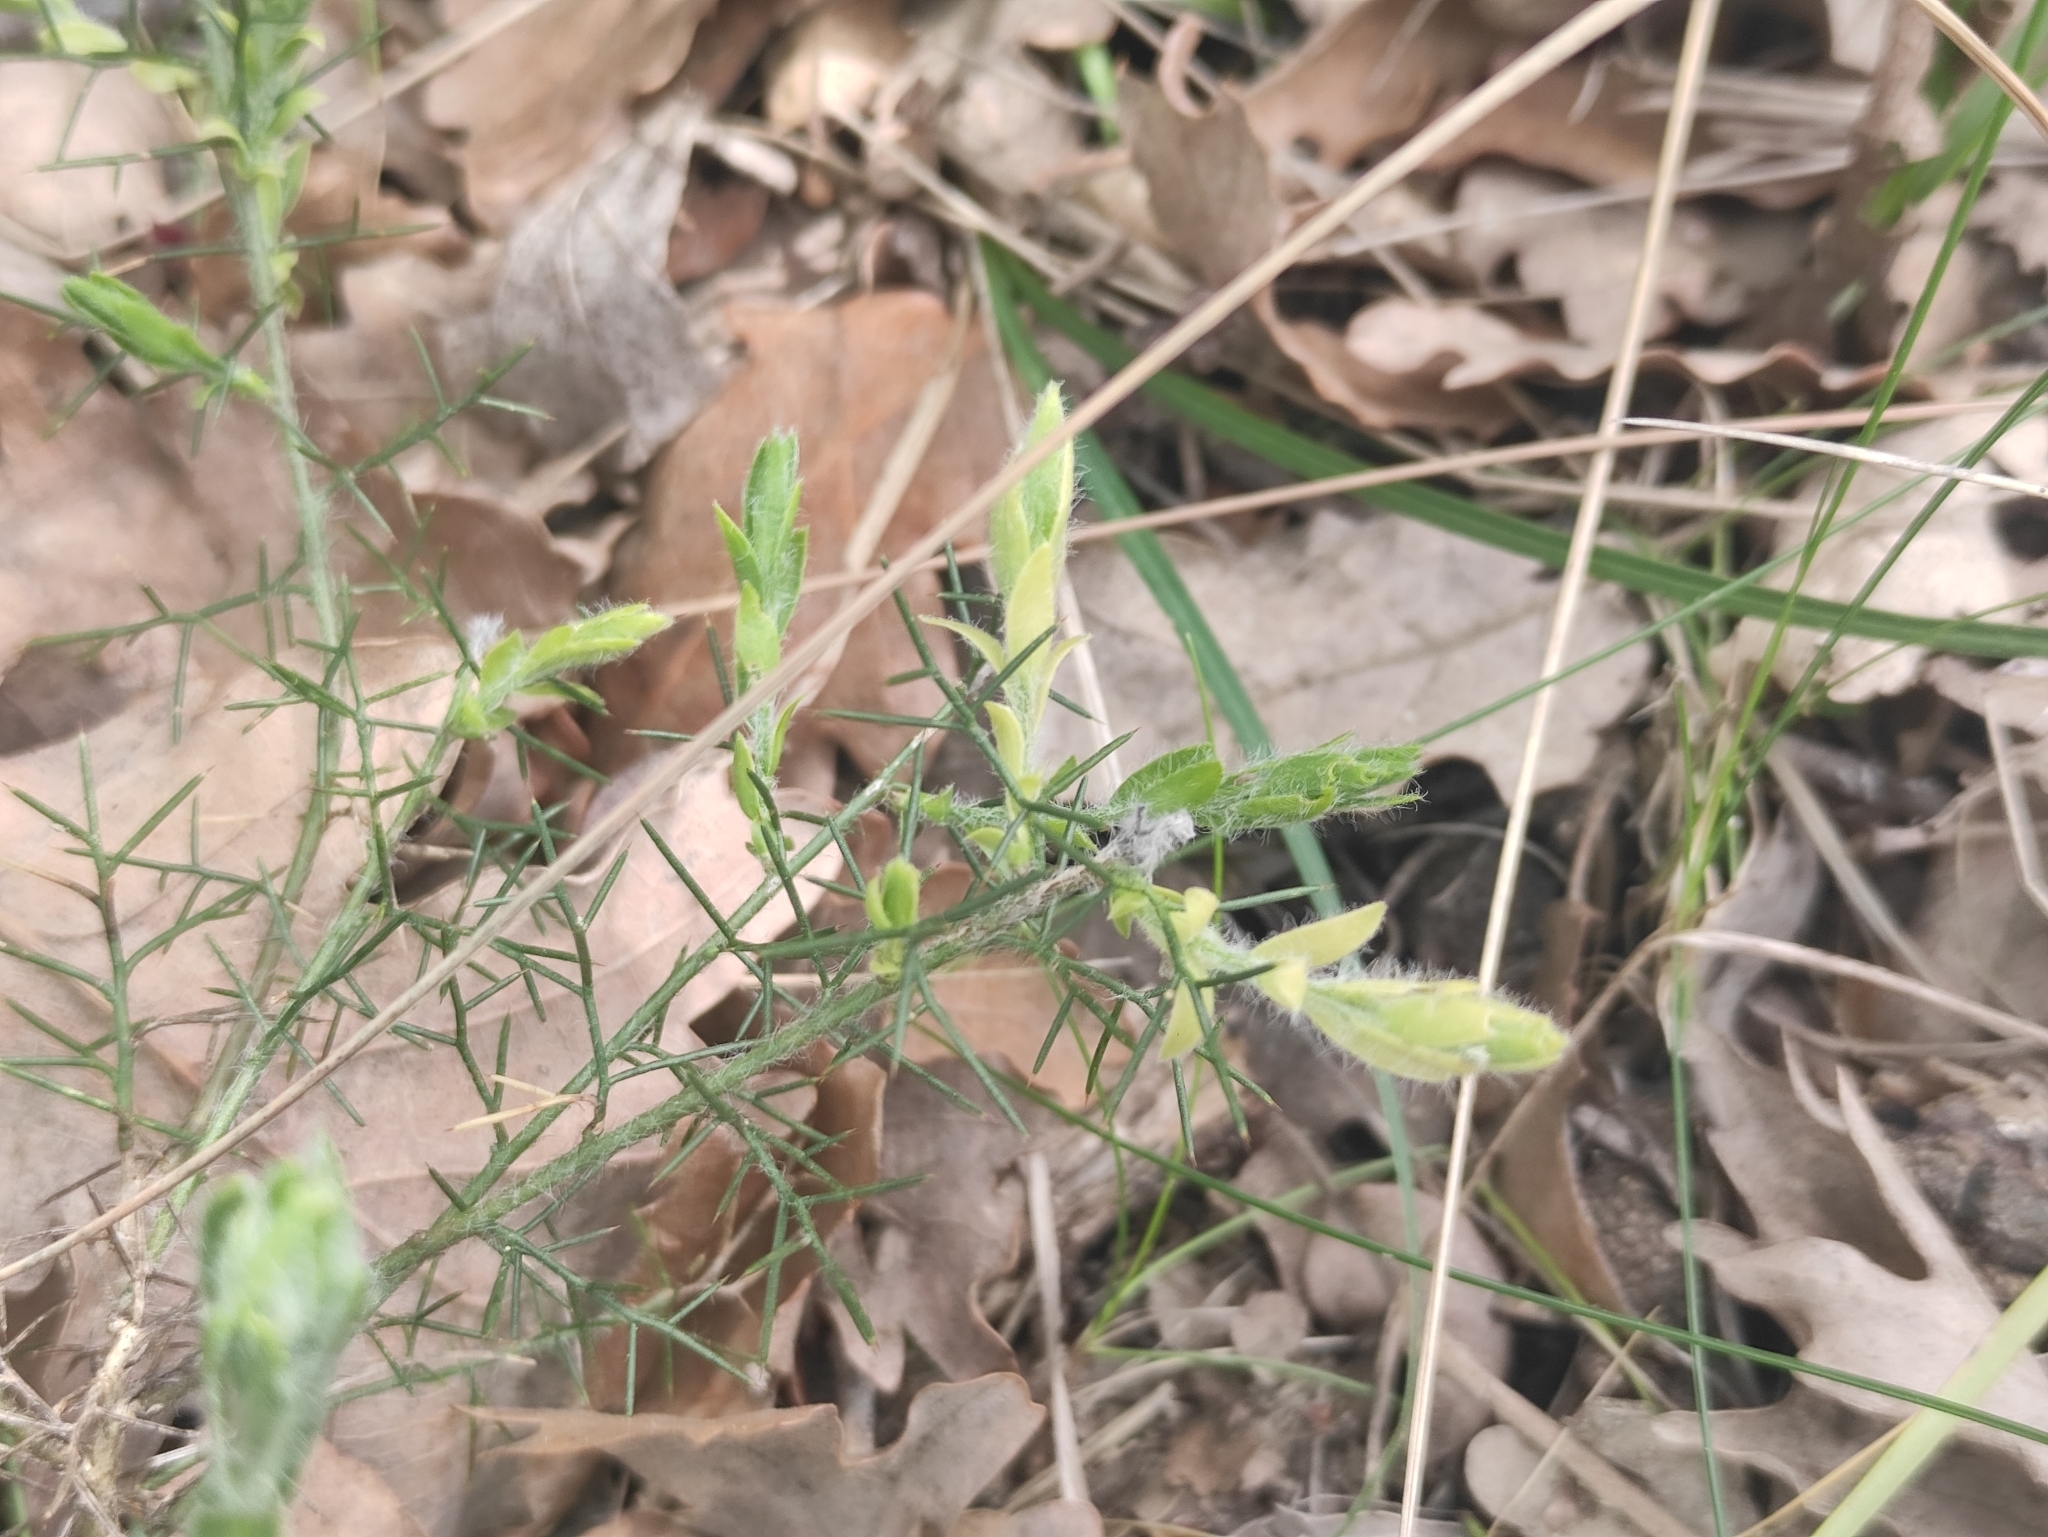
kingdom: Plantae
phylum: Tracheophyta
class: Magnoliopsida
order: Fabales
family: Fabaceae
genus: Genista
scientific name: Genista hispanica
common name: Spanish gorse
